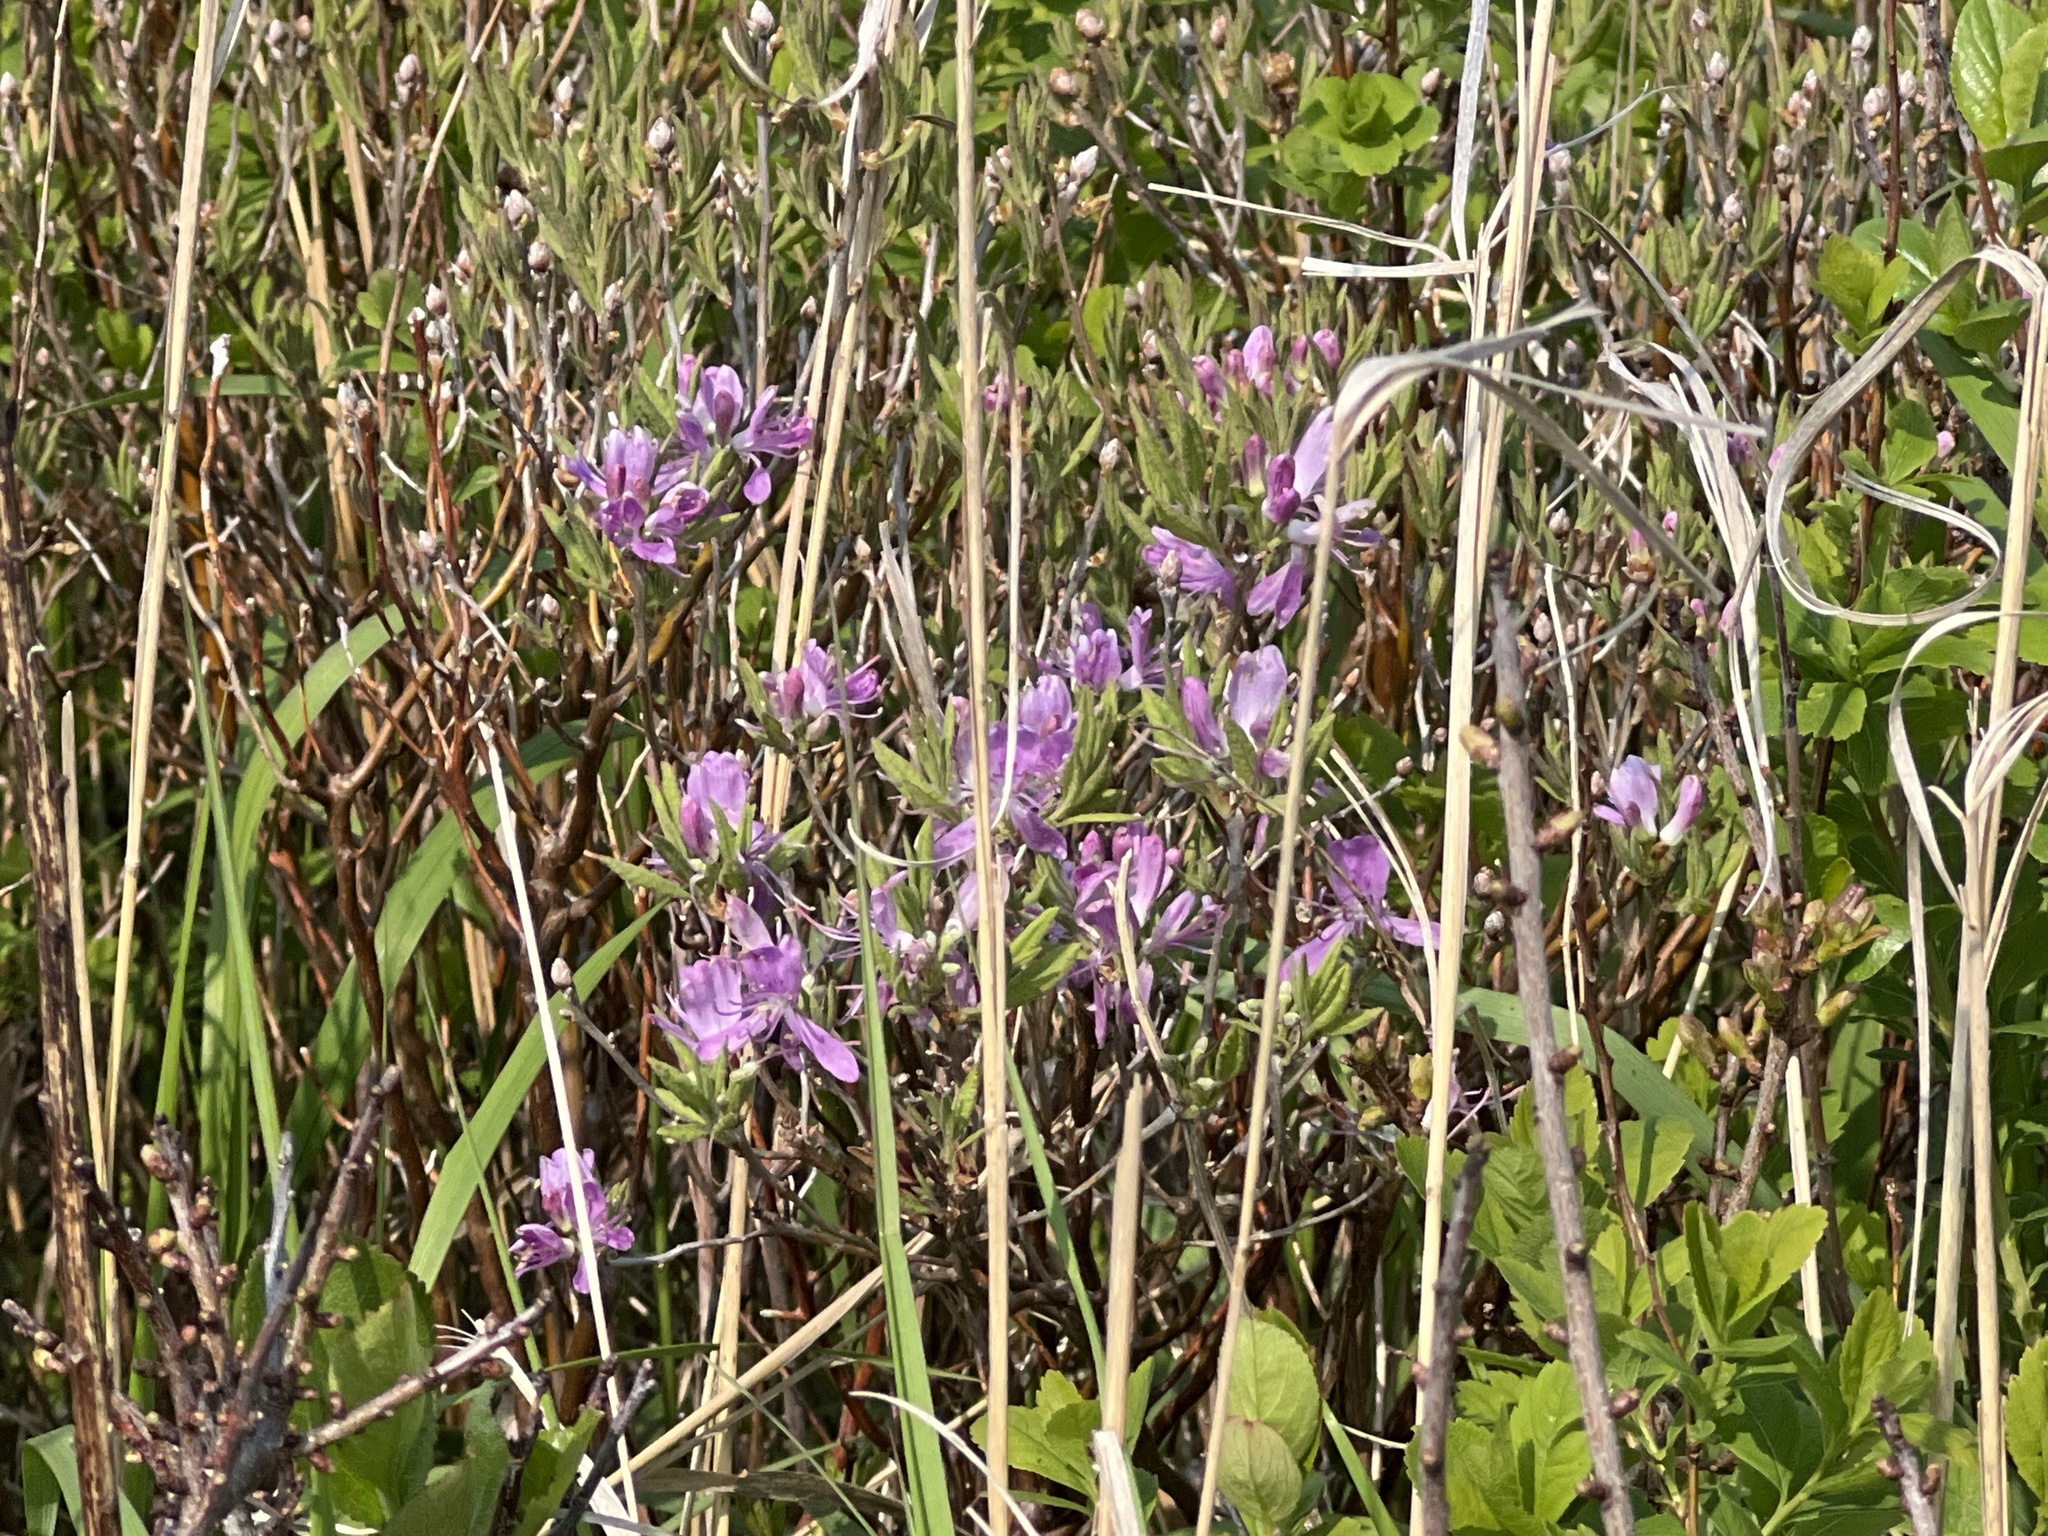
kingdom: Plantae
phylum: Tracheophyta
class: Magnoliopsida
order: Ericales
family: Ericaceae
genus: Rhododendron
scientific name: Rhododendron canadense
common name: Rhodora
